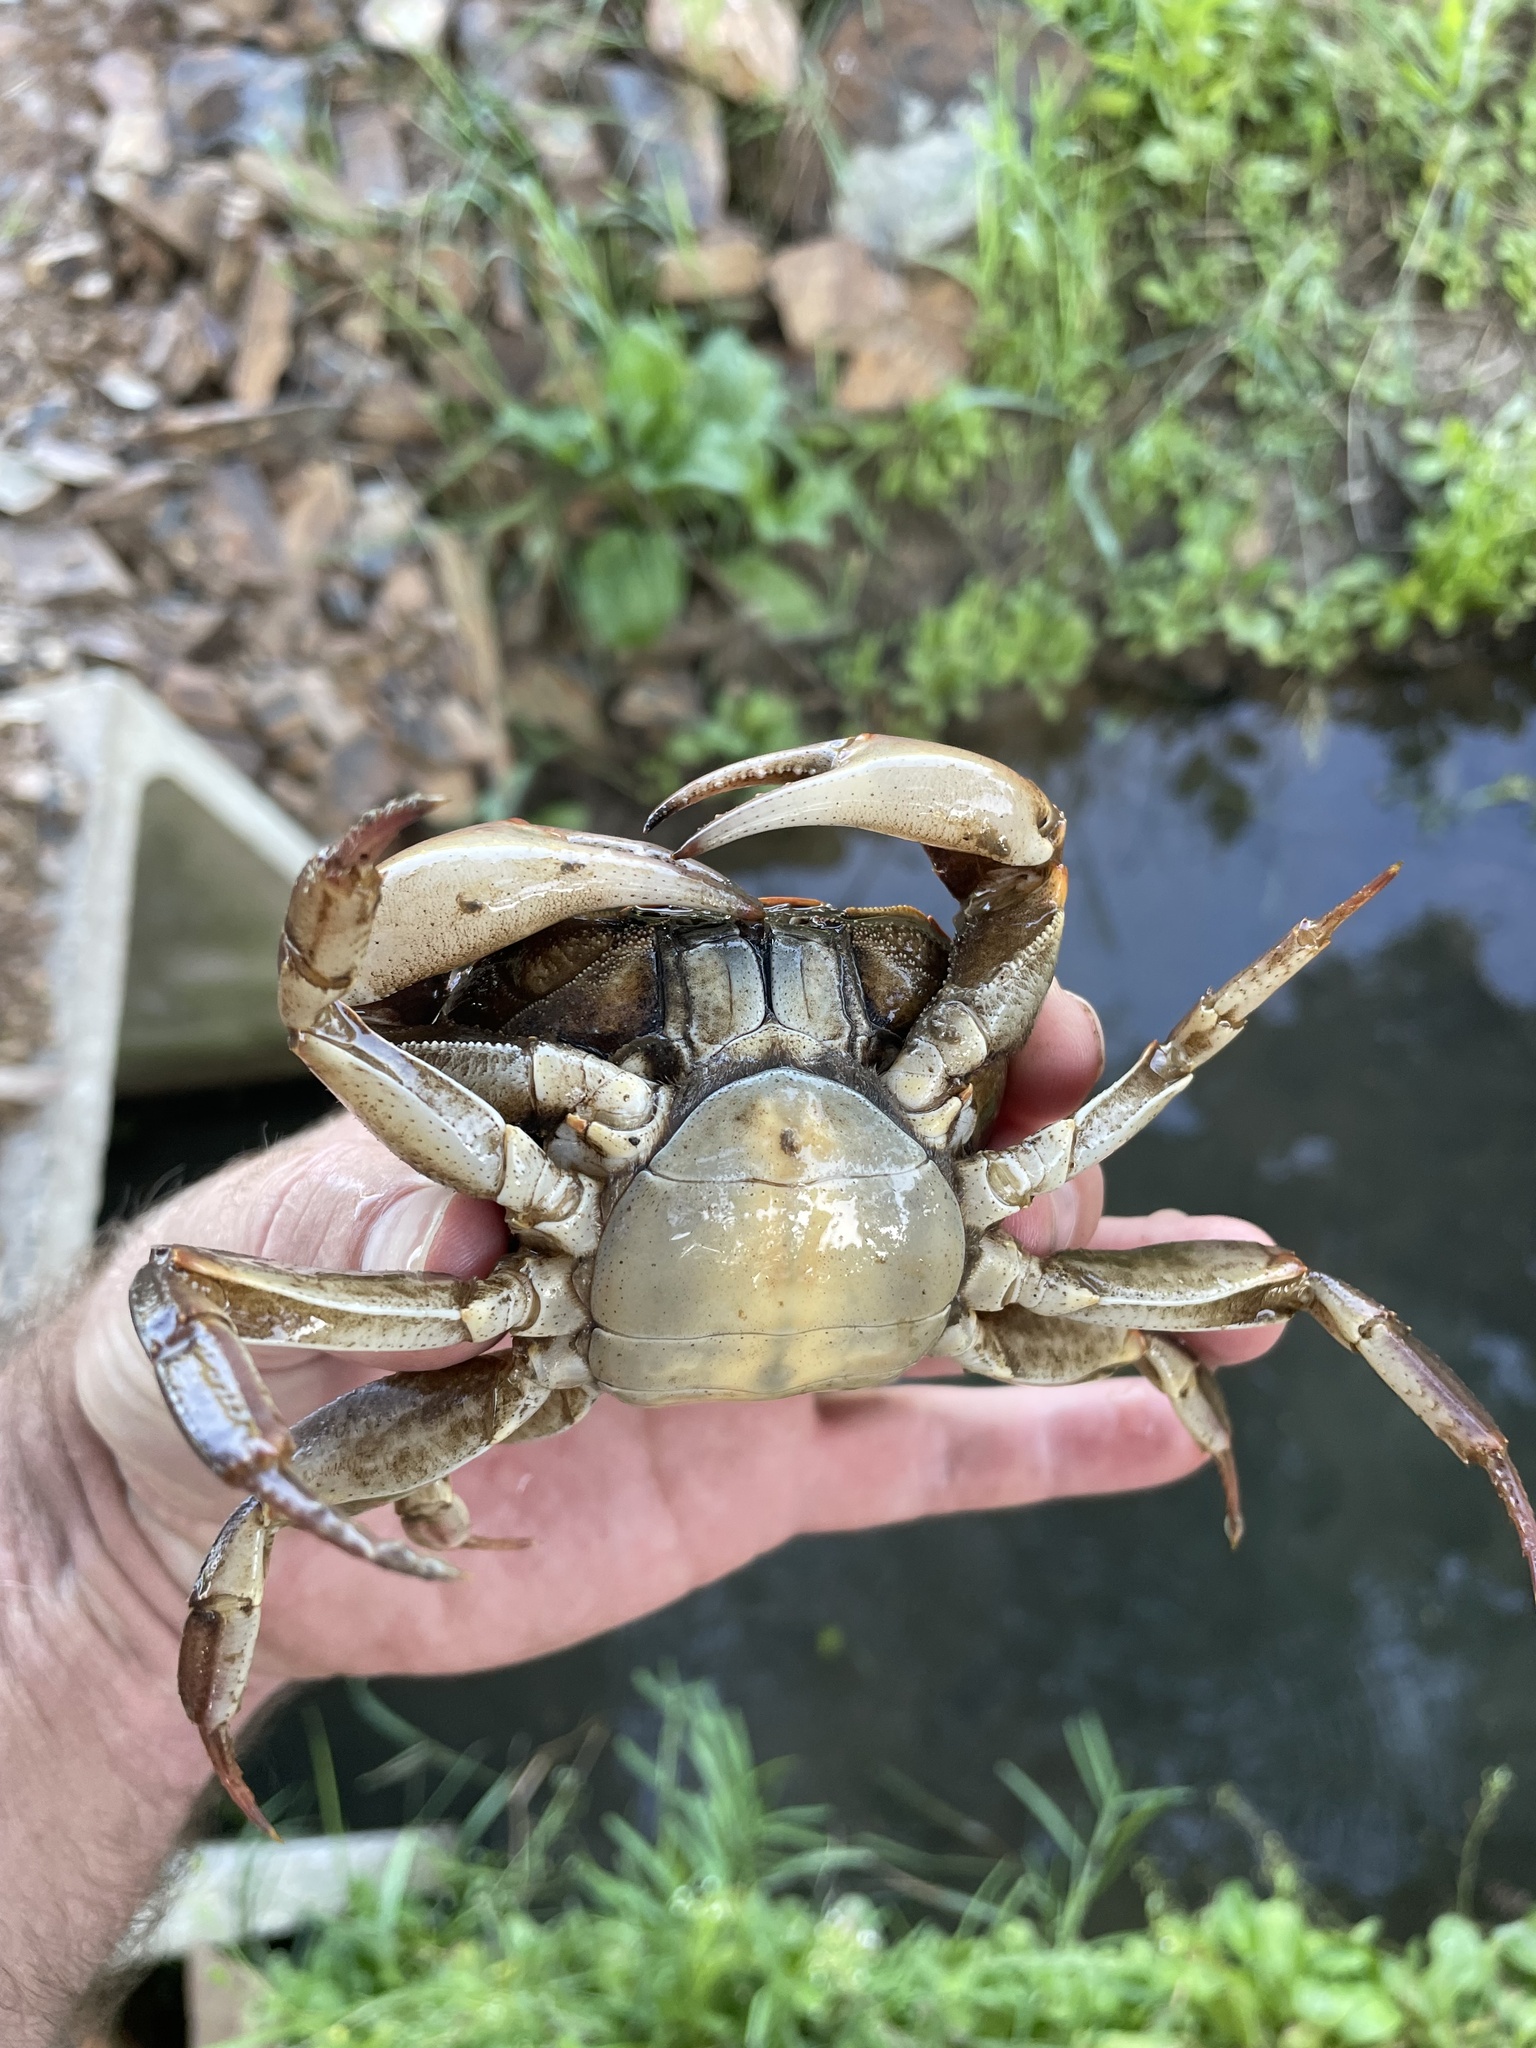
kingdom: Animalia
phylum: Arthropoda
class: Malacostraca
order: Decapoda
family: Potamonautidae
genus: Potamonautes
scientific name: Potamonautes sidneyi
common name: Natal river crab
